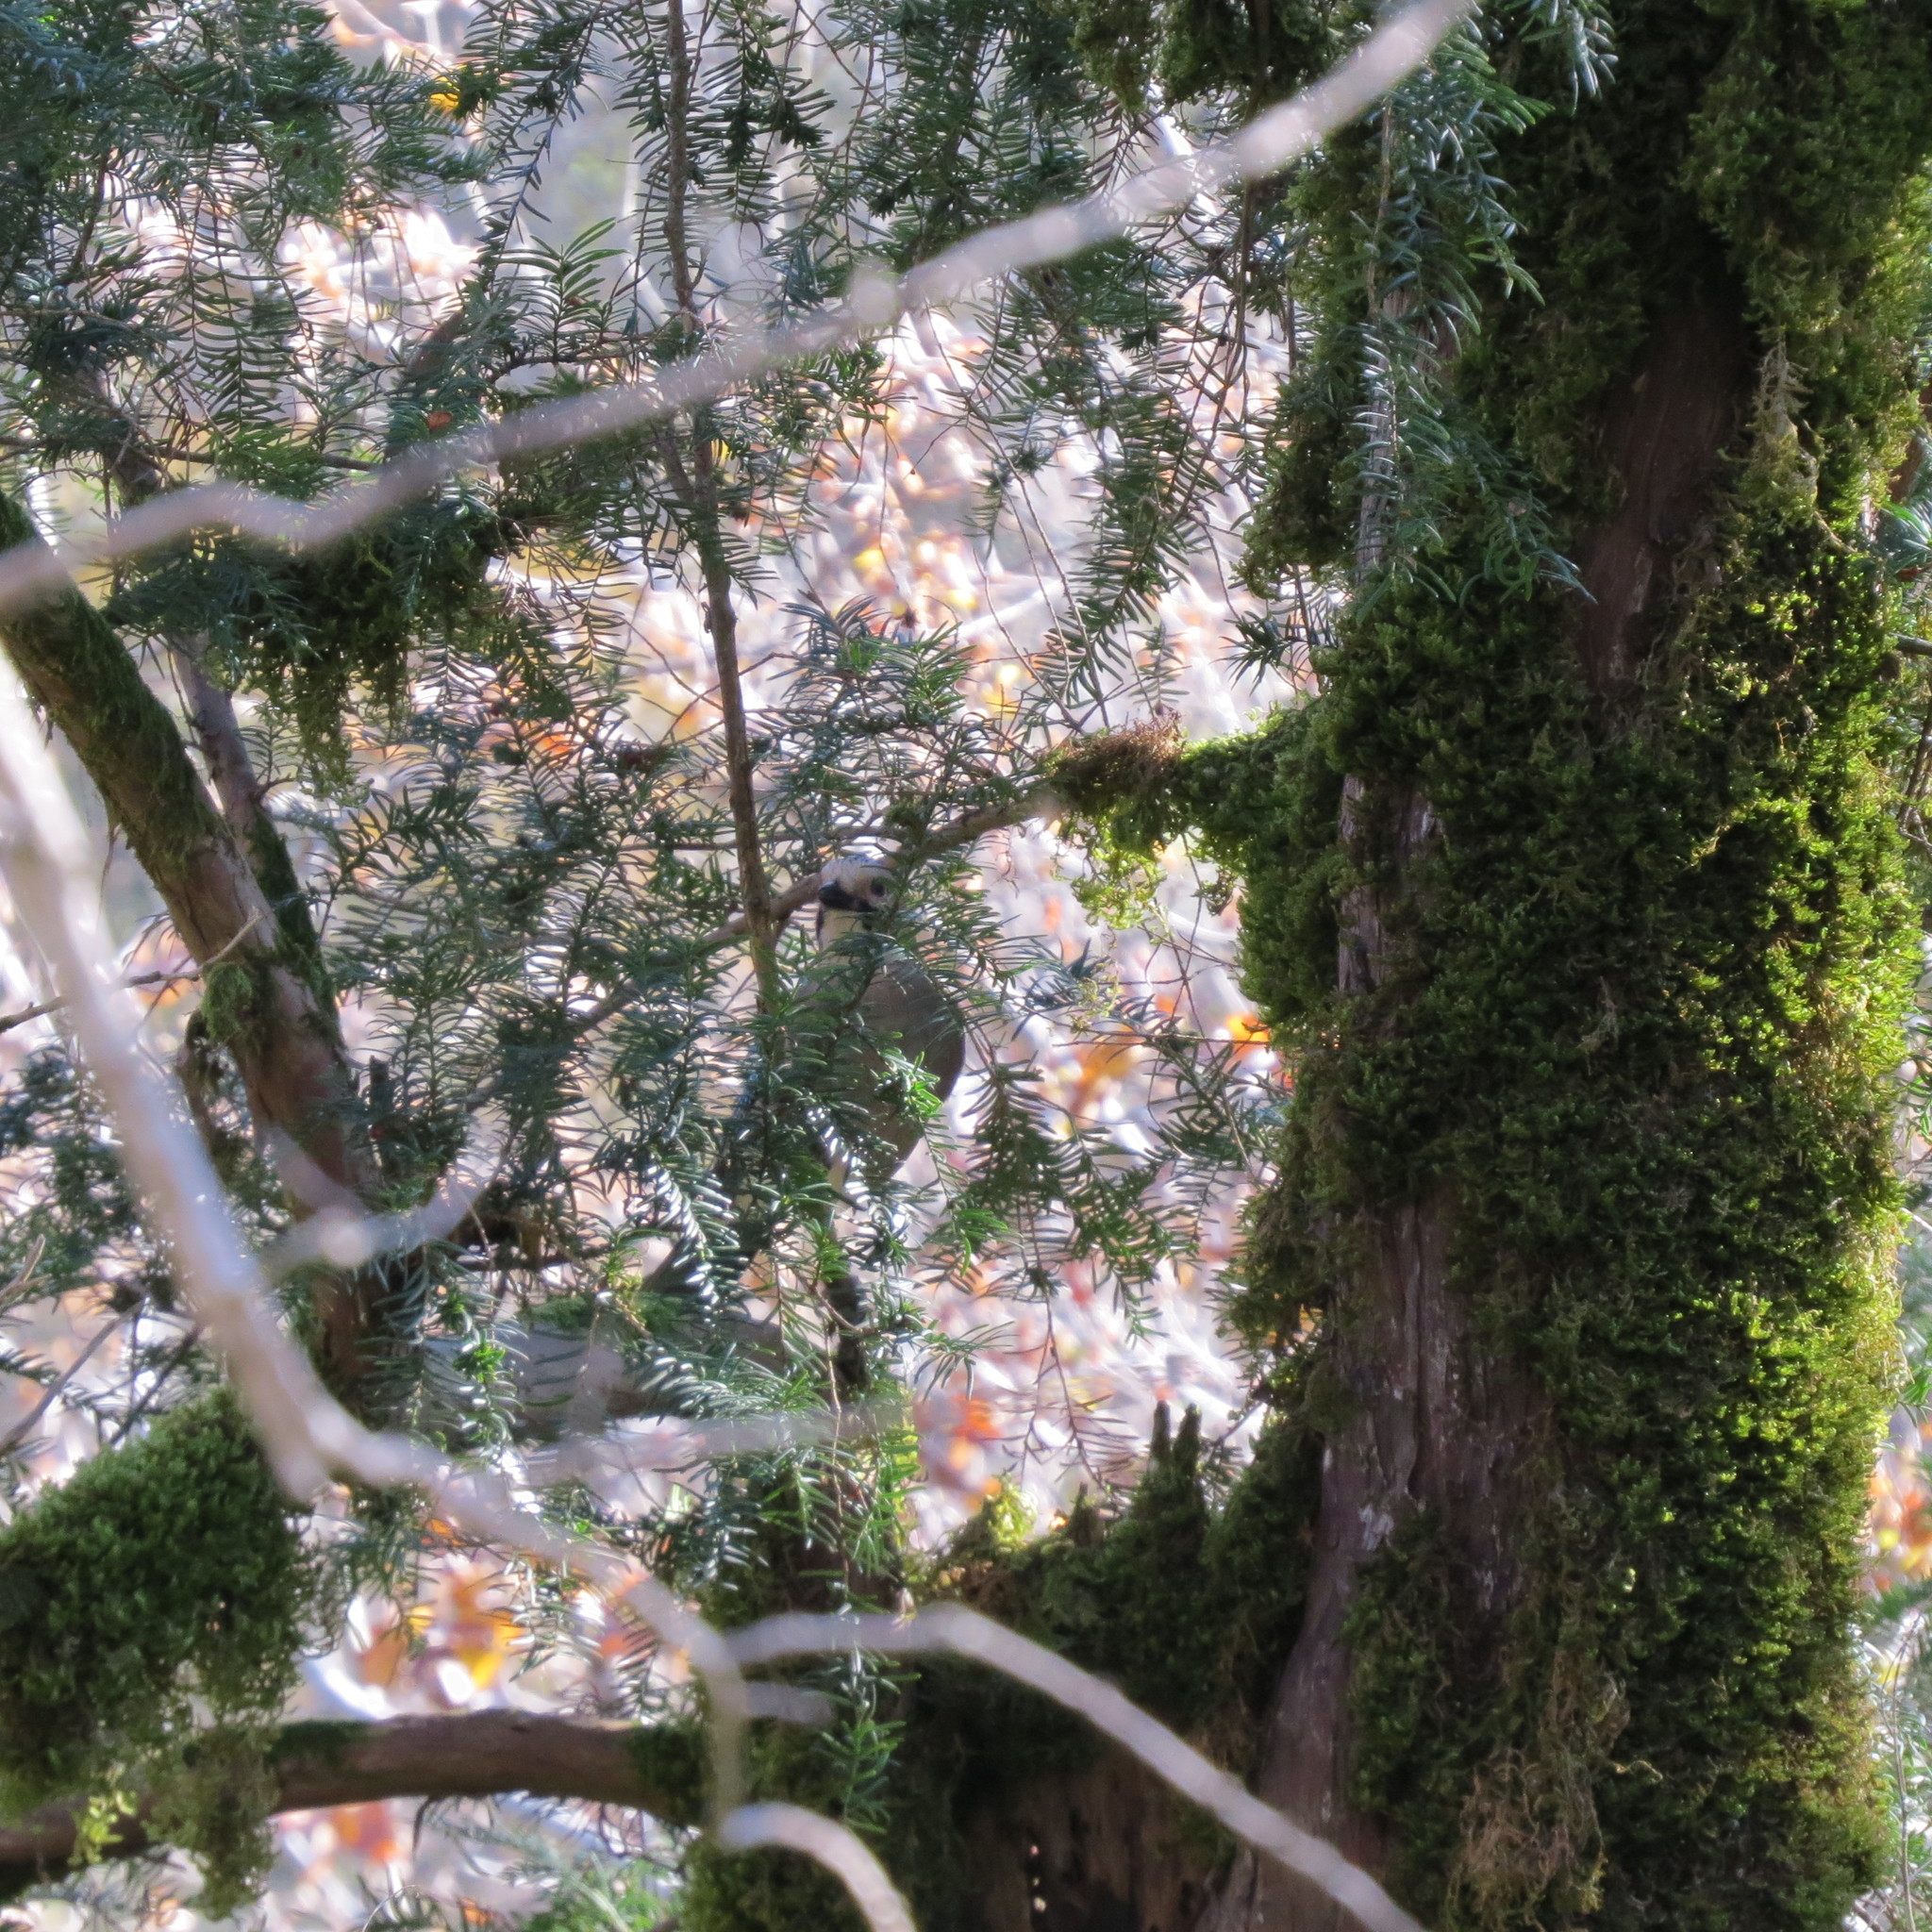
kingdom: Animalia
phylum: Chordata
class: Aves
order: Passeriformes
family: Corvidae
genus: Garrulus
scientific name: Garrulus glandarius
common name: Eurasian jay
